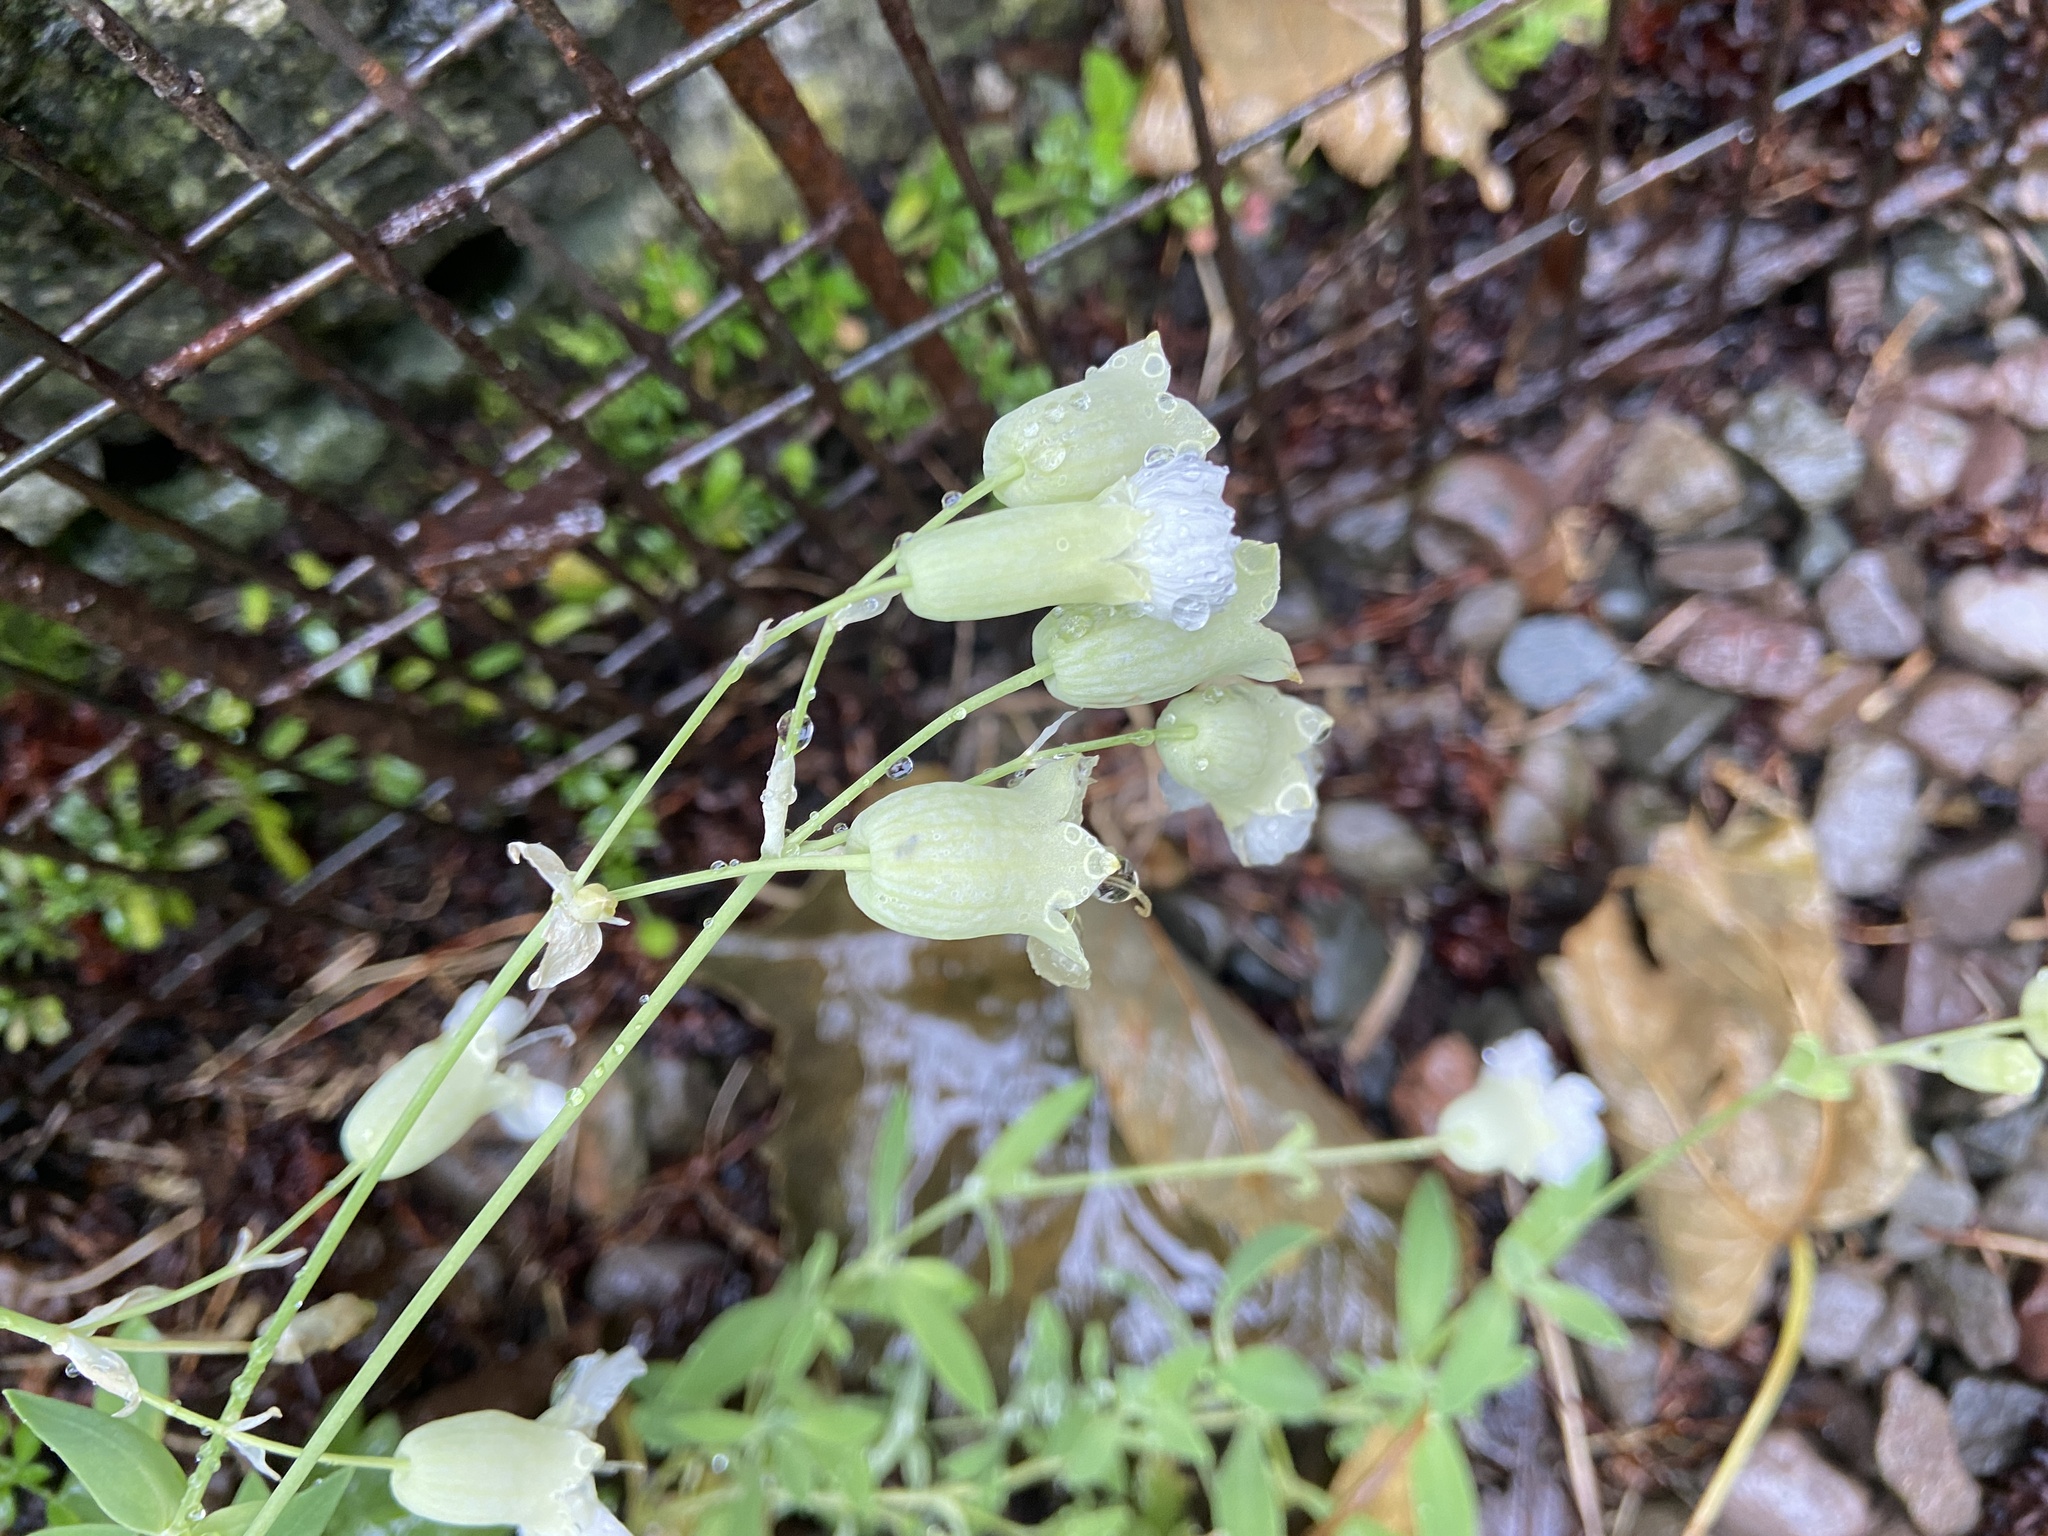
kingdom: Plantae
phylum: Tracheophyta
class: Magnoliopsida
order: Caryophyllales
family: Caryophyllaceae
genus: Silene
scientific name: Silene uniflora
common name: Sea campion
